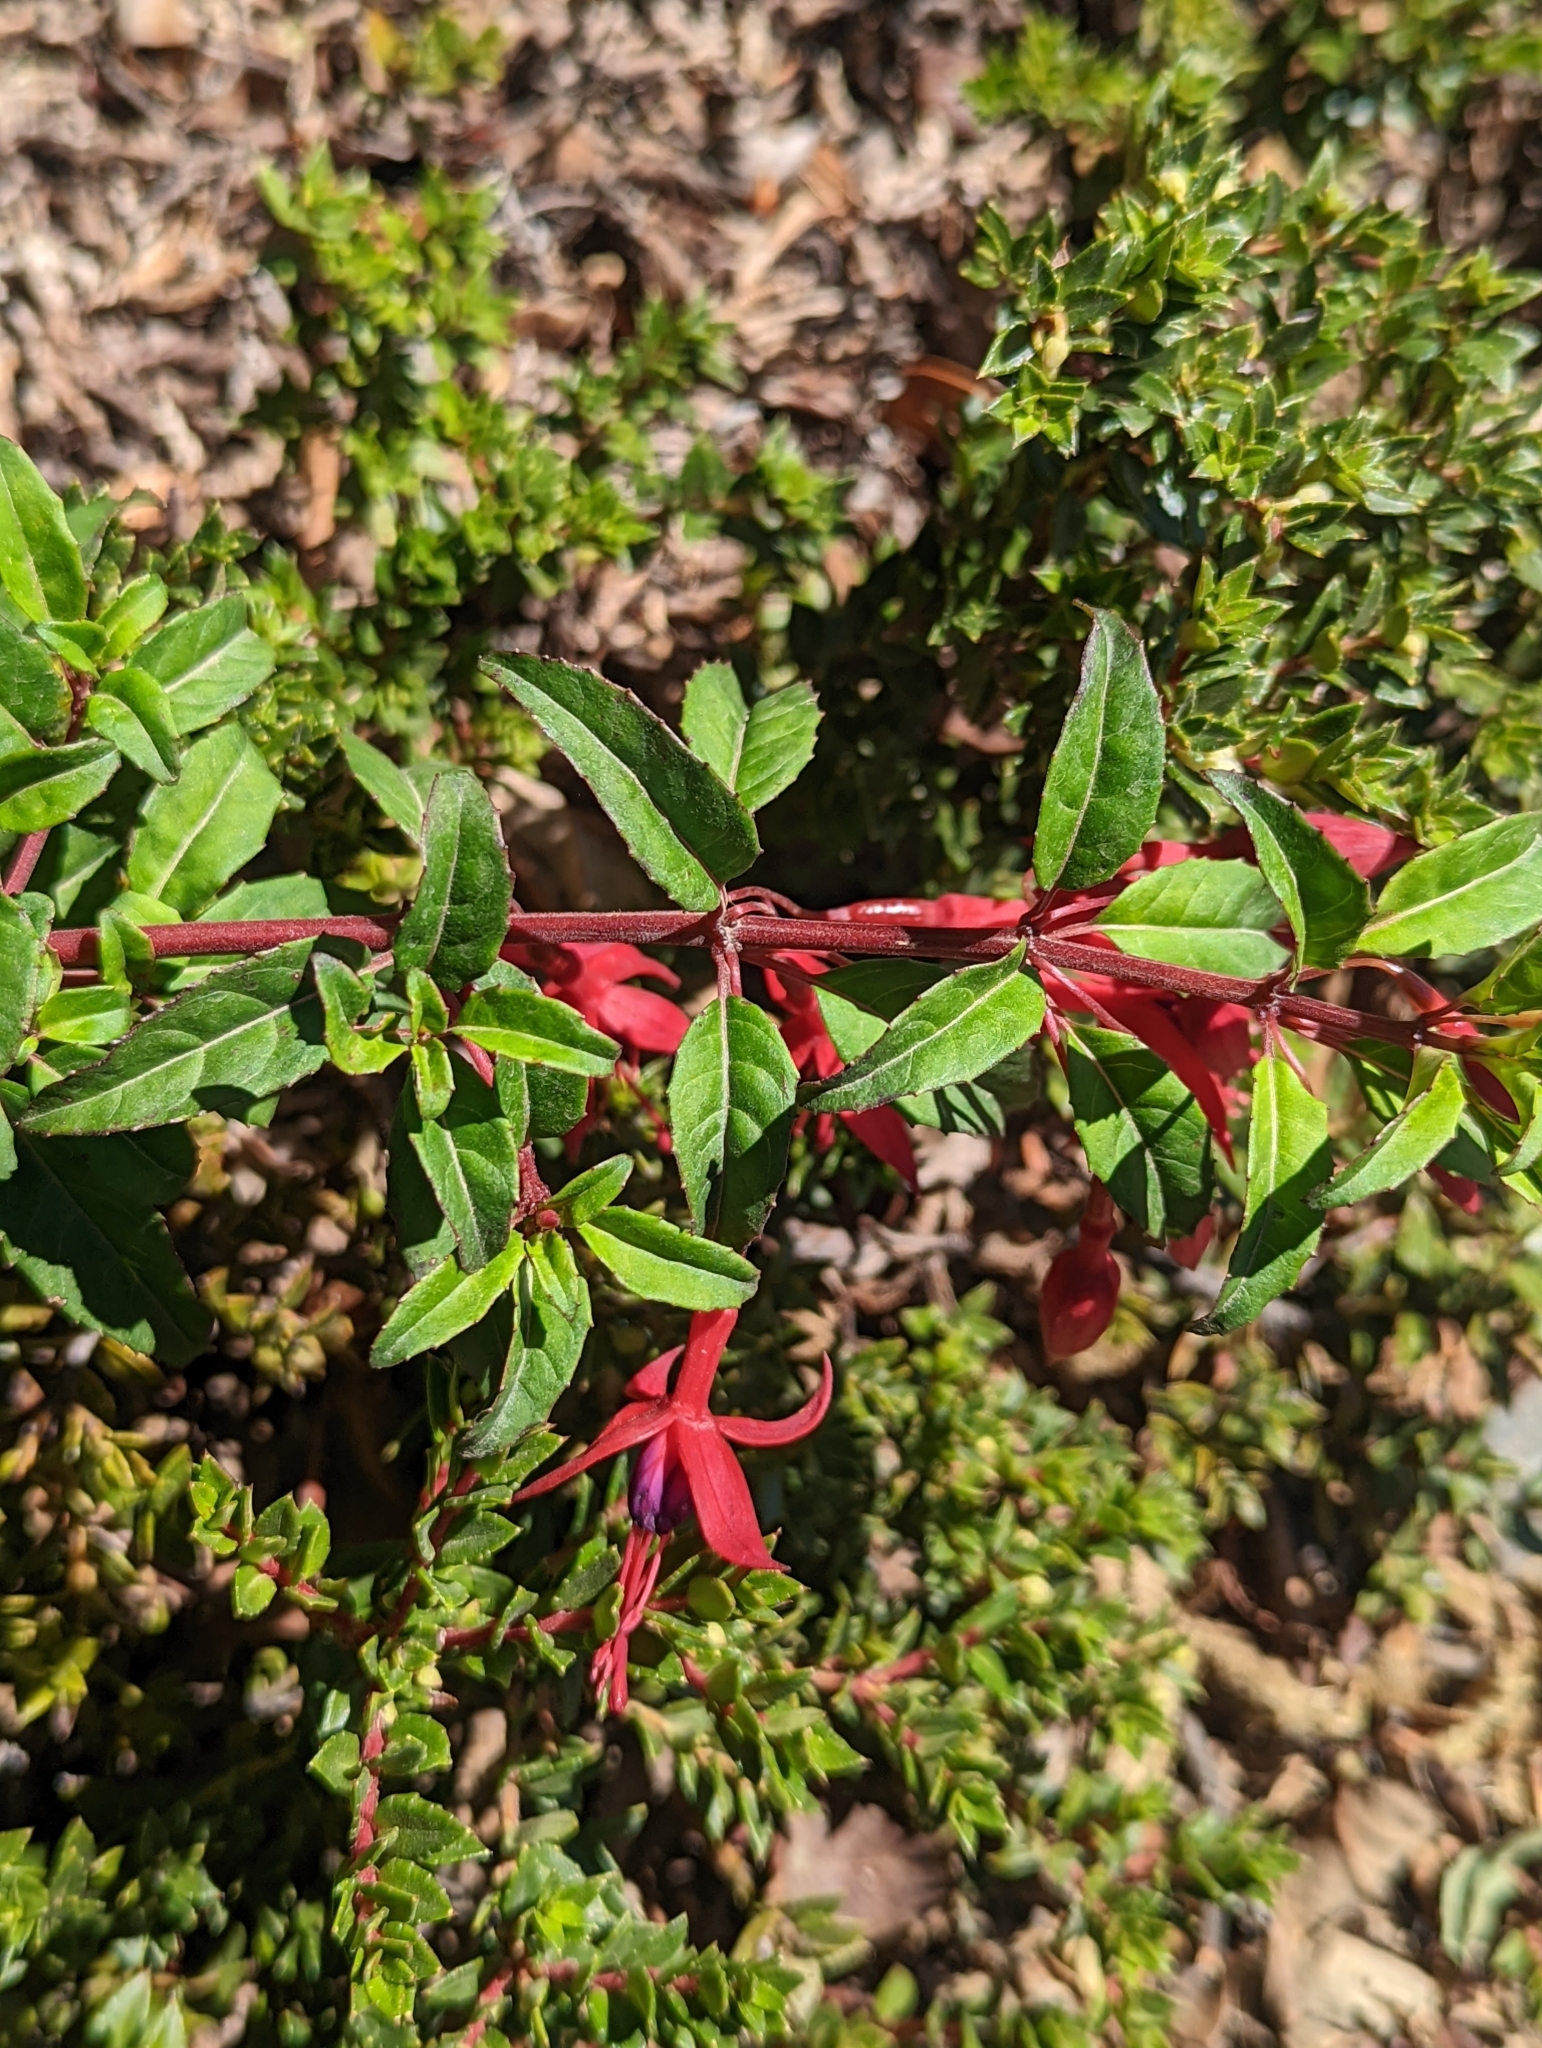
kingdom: Plantae
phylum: Tracheophyta
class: Magnoliopsida
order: Myrtales
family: Onagraceae
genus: Fuchsia
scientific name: Fuchsia magellanica
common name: Hardy fuchsia
